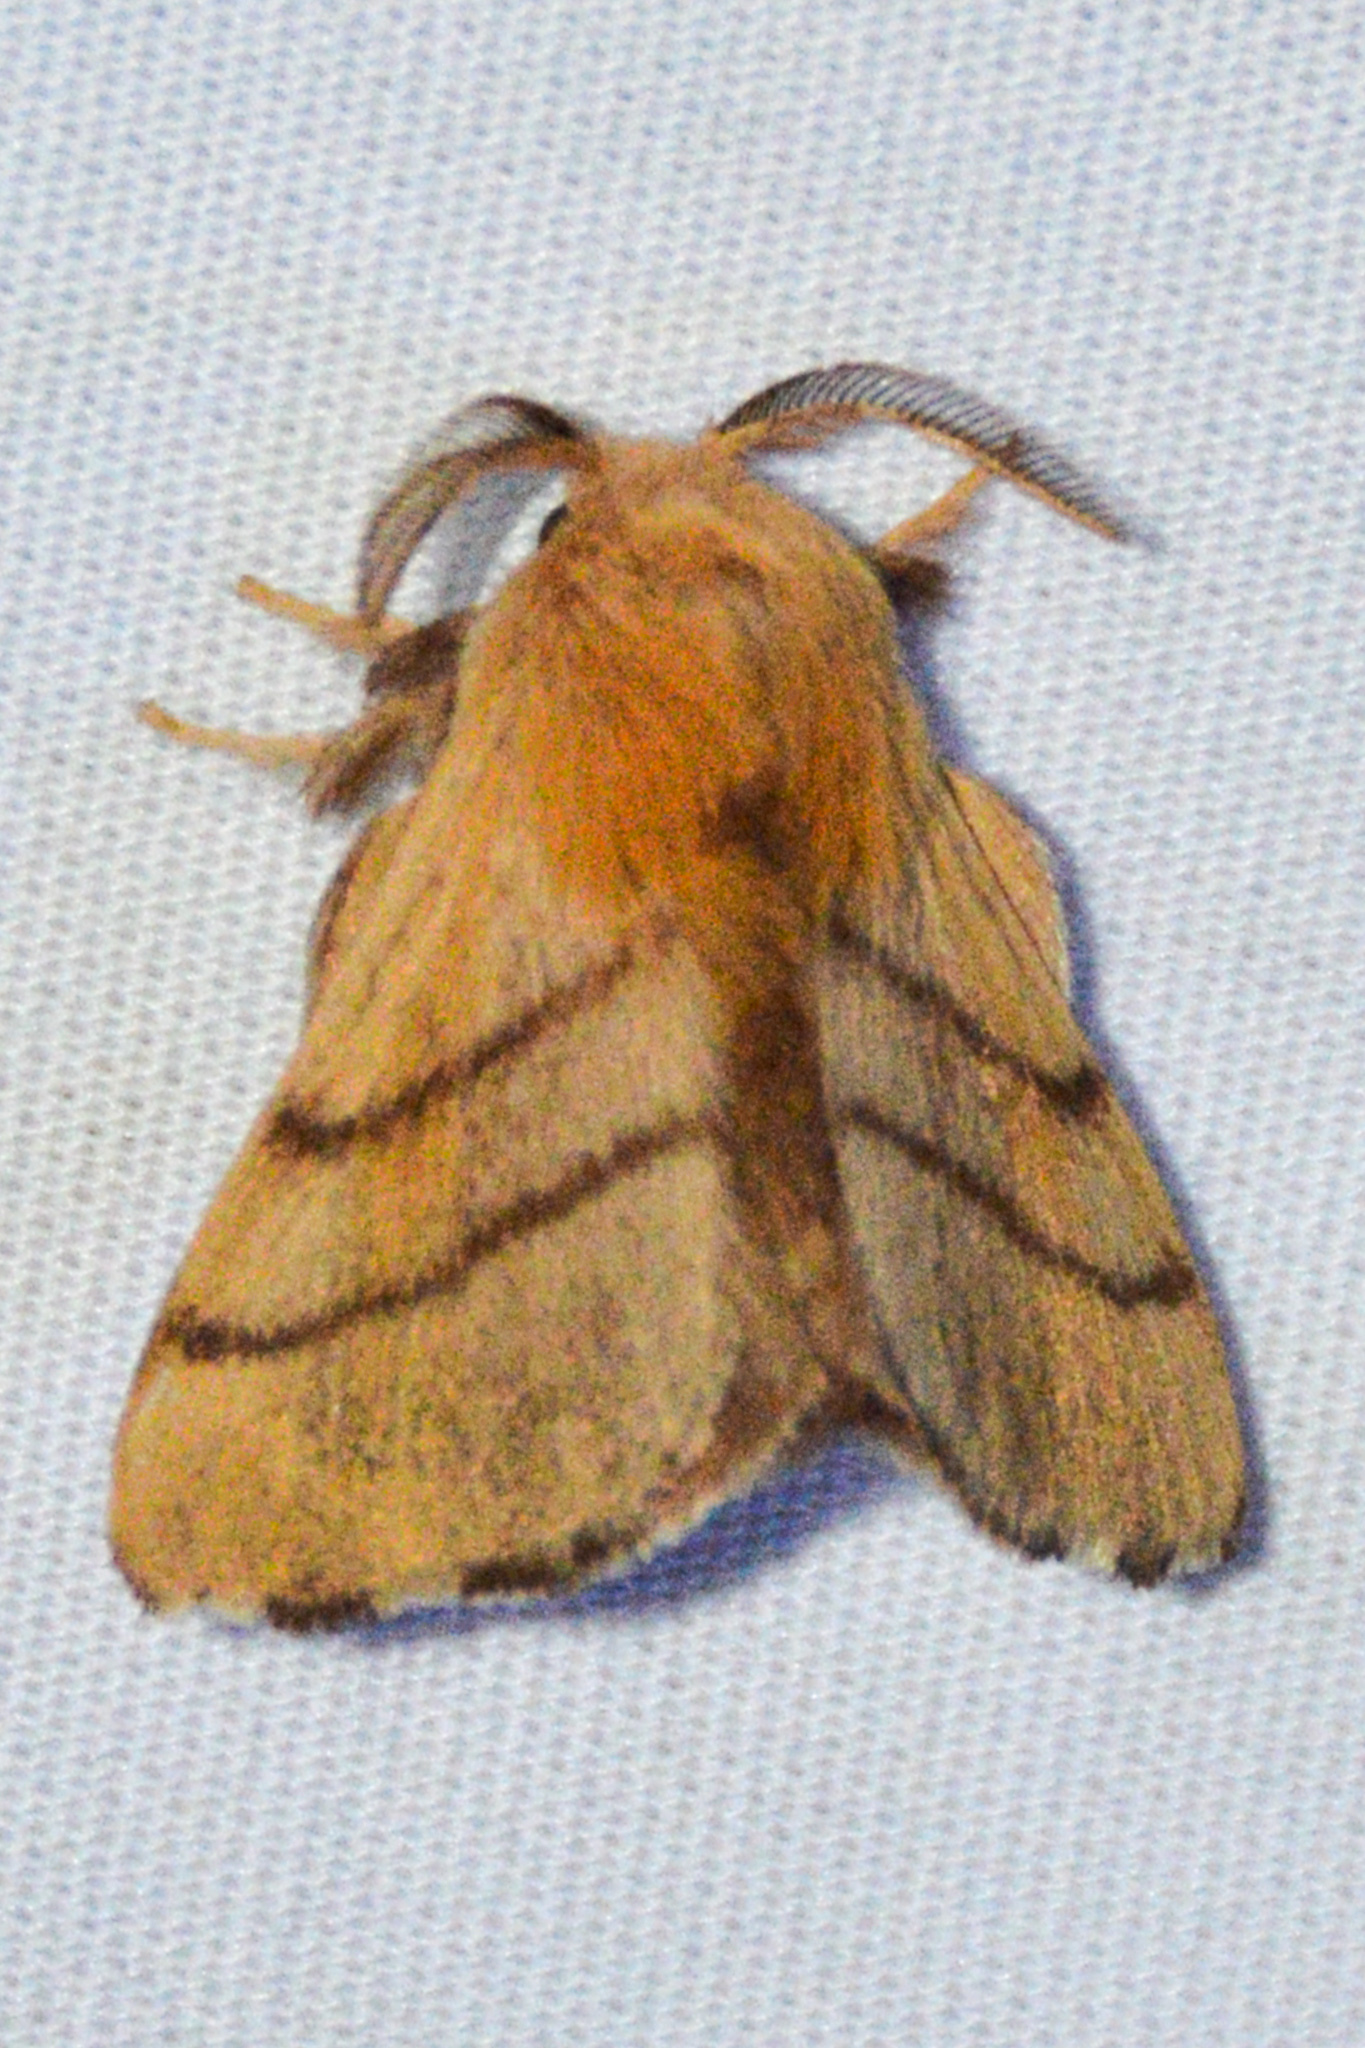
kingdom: Animalia
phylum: Arthropoda
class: Insecta
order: Lepidoptera
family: Lasiocampidae
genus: Malacosoma
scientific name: Malacosoma disstria
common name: Forest tent caterpillar
